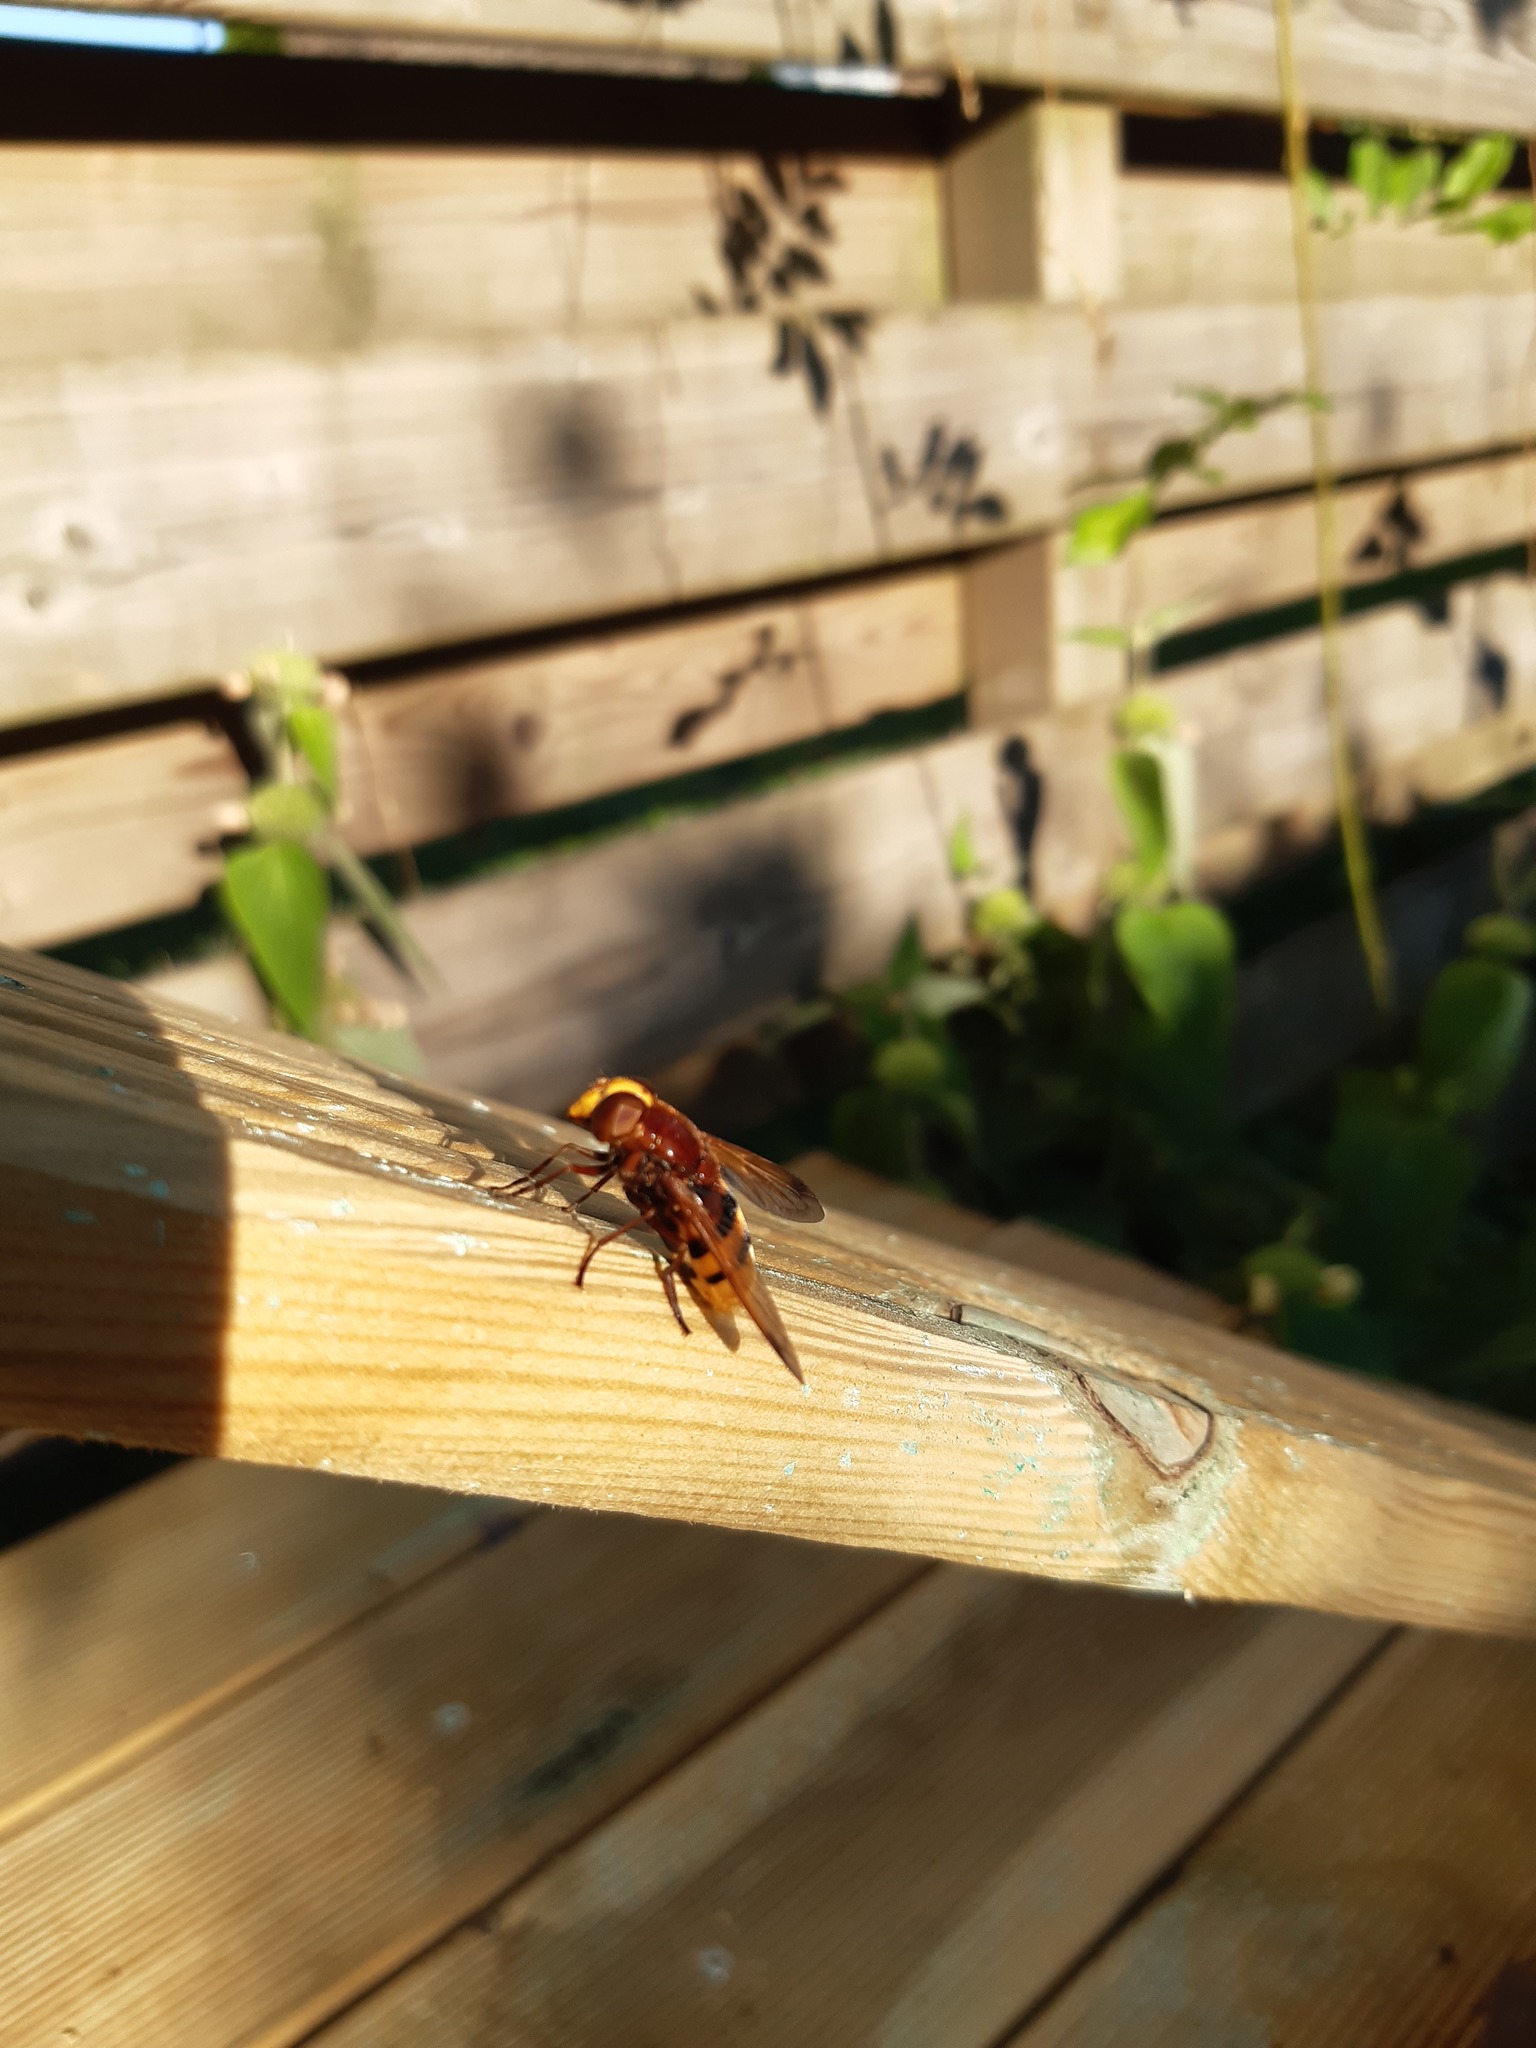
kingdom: Animalia
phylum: Arthropoda
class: Insecta
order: Diptera
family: Syrphidae
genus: Volucella
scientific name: Volucella zonaria
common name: Hornet hoverfly
